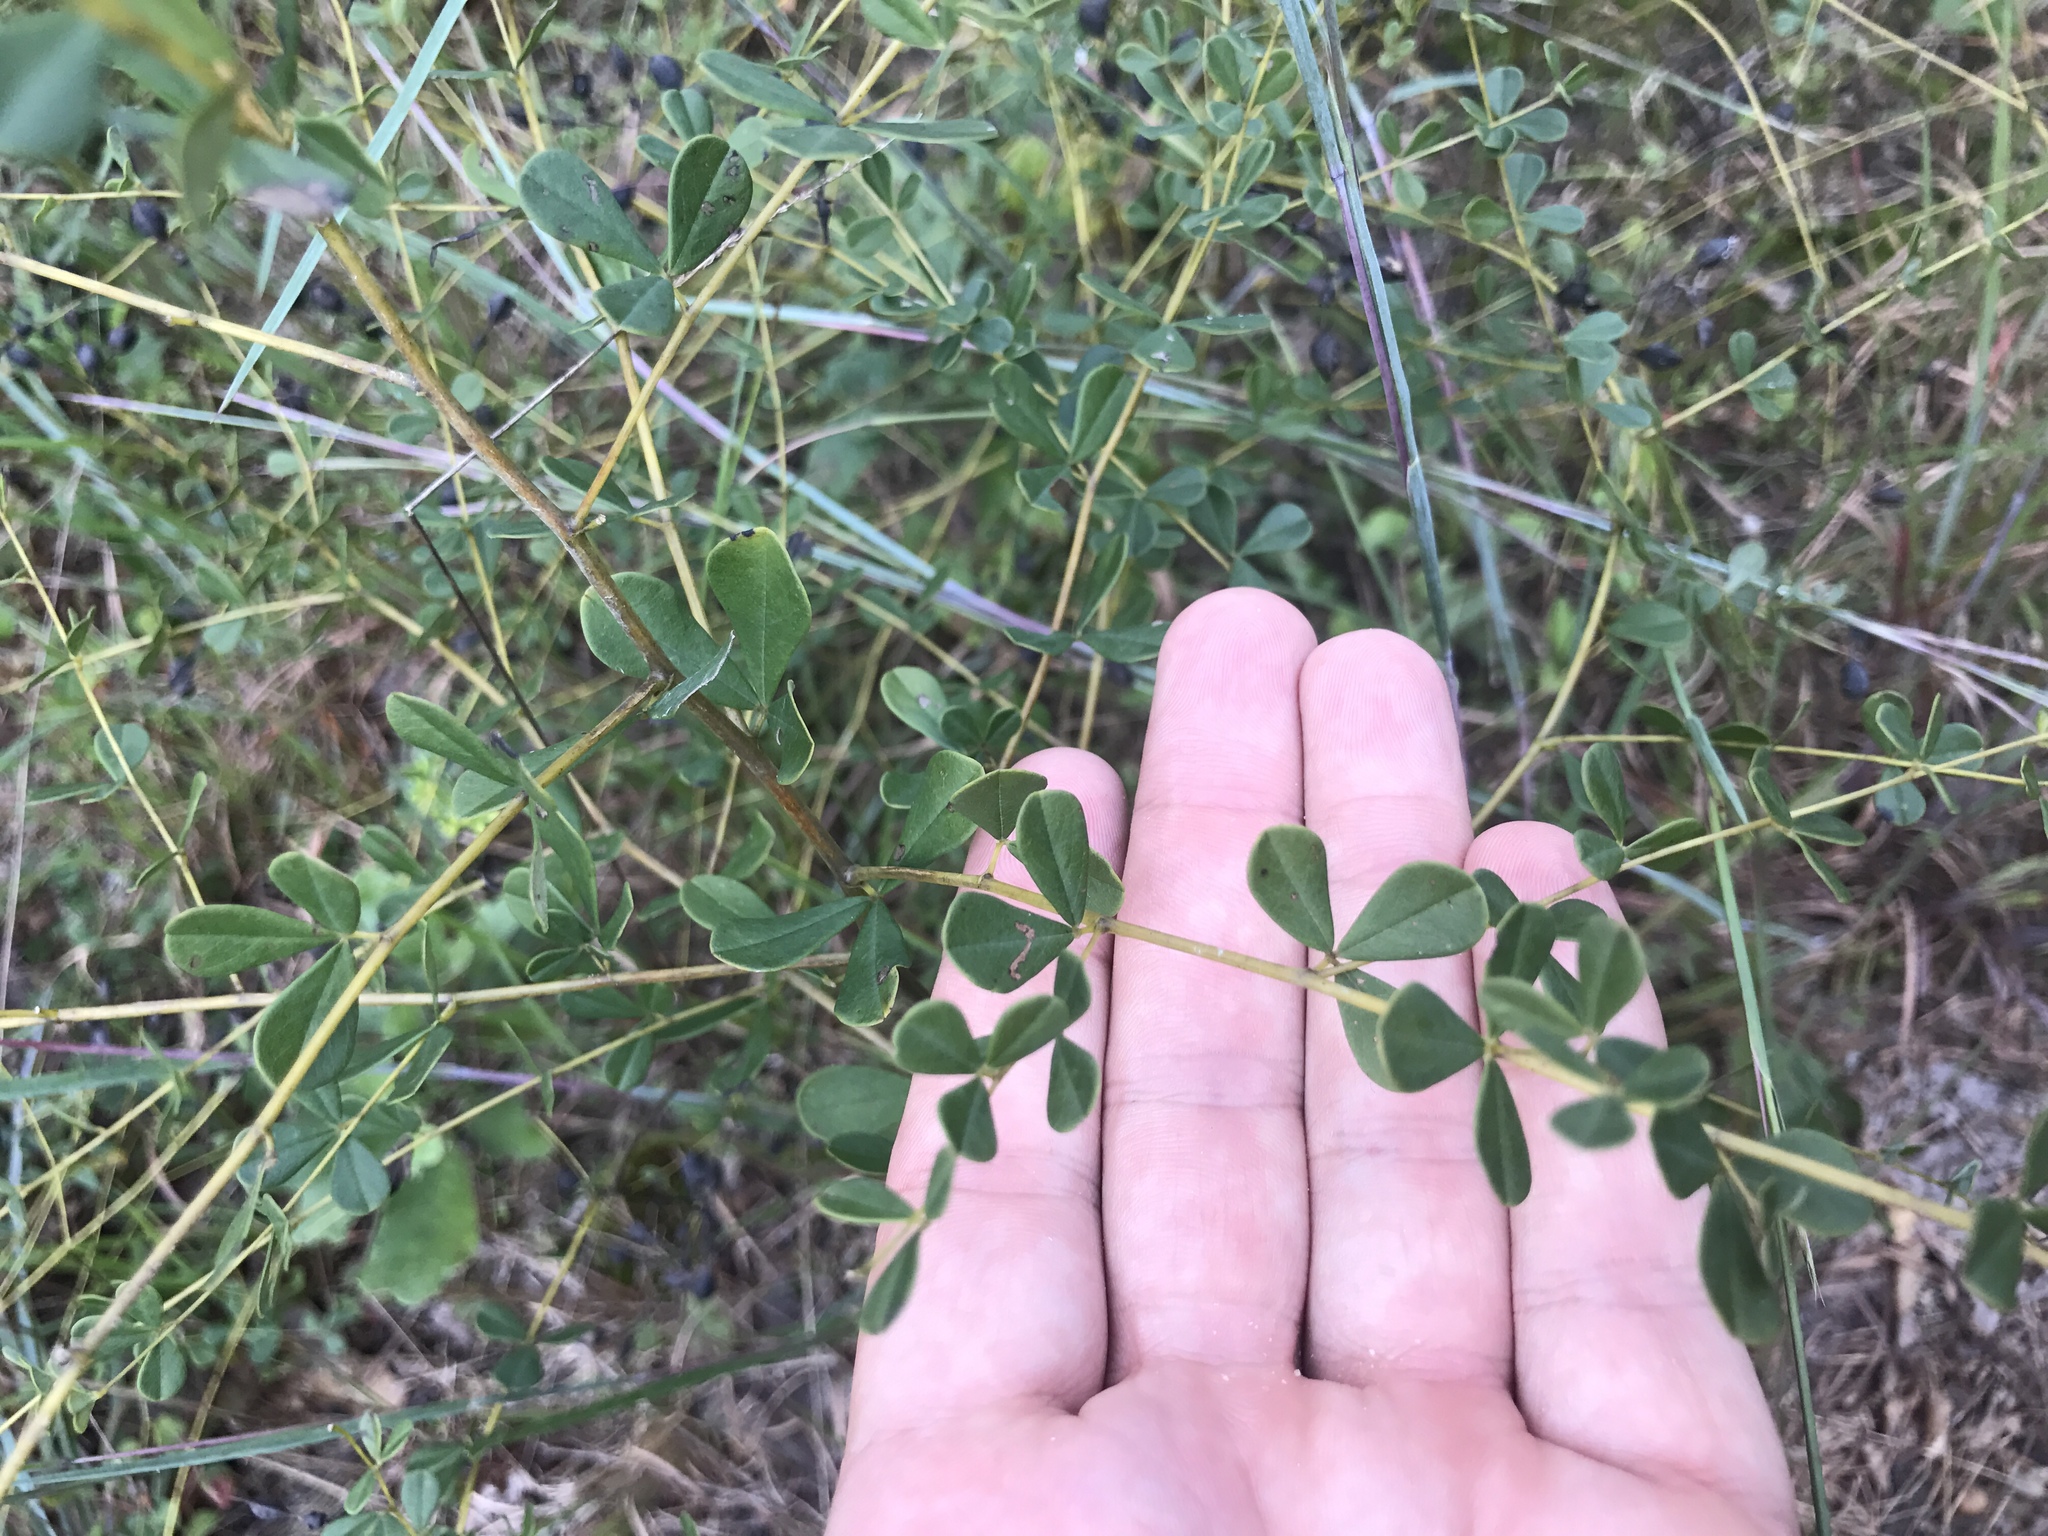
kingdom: Plantae
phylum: Tracheophyta
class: Magnoliopsida
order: Fabales
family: Fabaceae
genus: Baptisia
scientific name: Baptisia tinctoria
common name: Wild indigo
